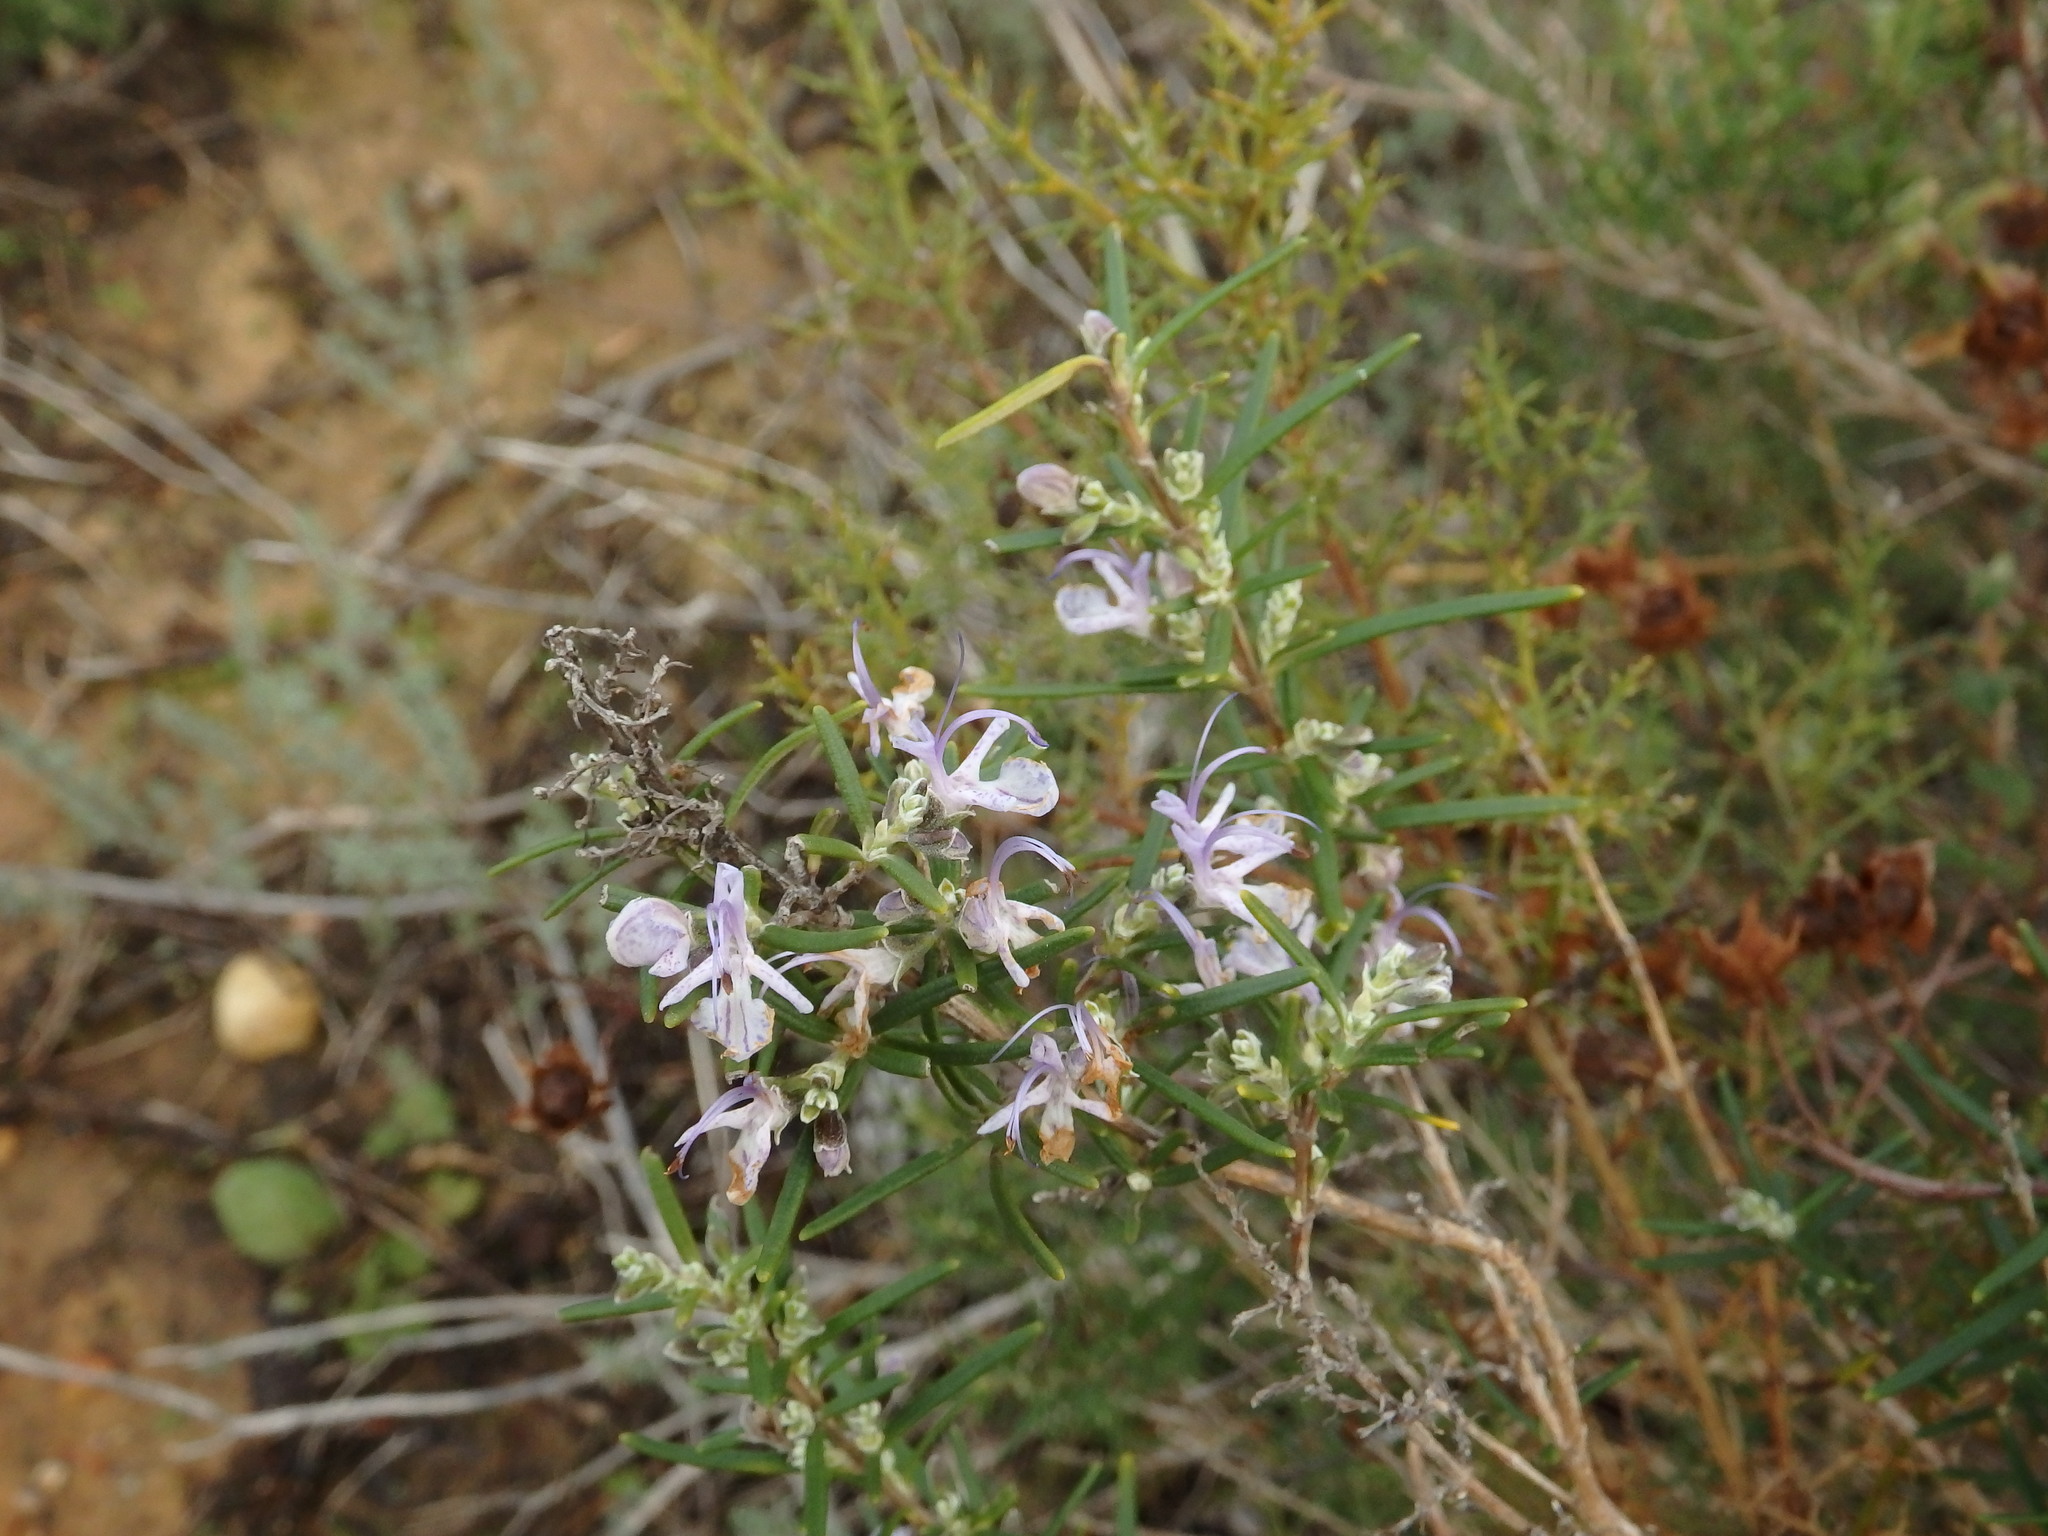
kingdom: Plantae
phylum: Tracheophyta
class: Magnoliopsida
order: Lamiales
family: Lamiaceae
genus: Salvia
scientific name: Salvia rosmarinus
